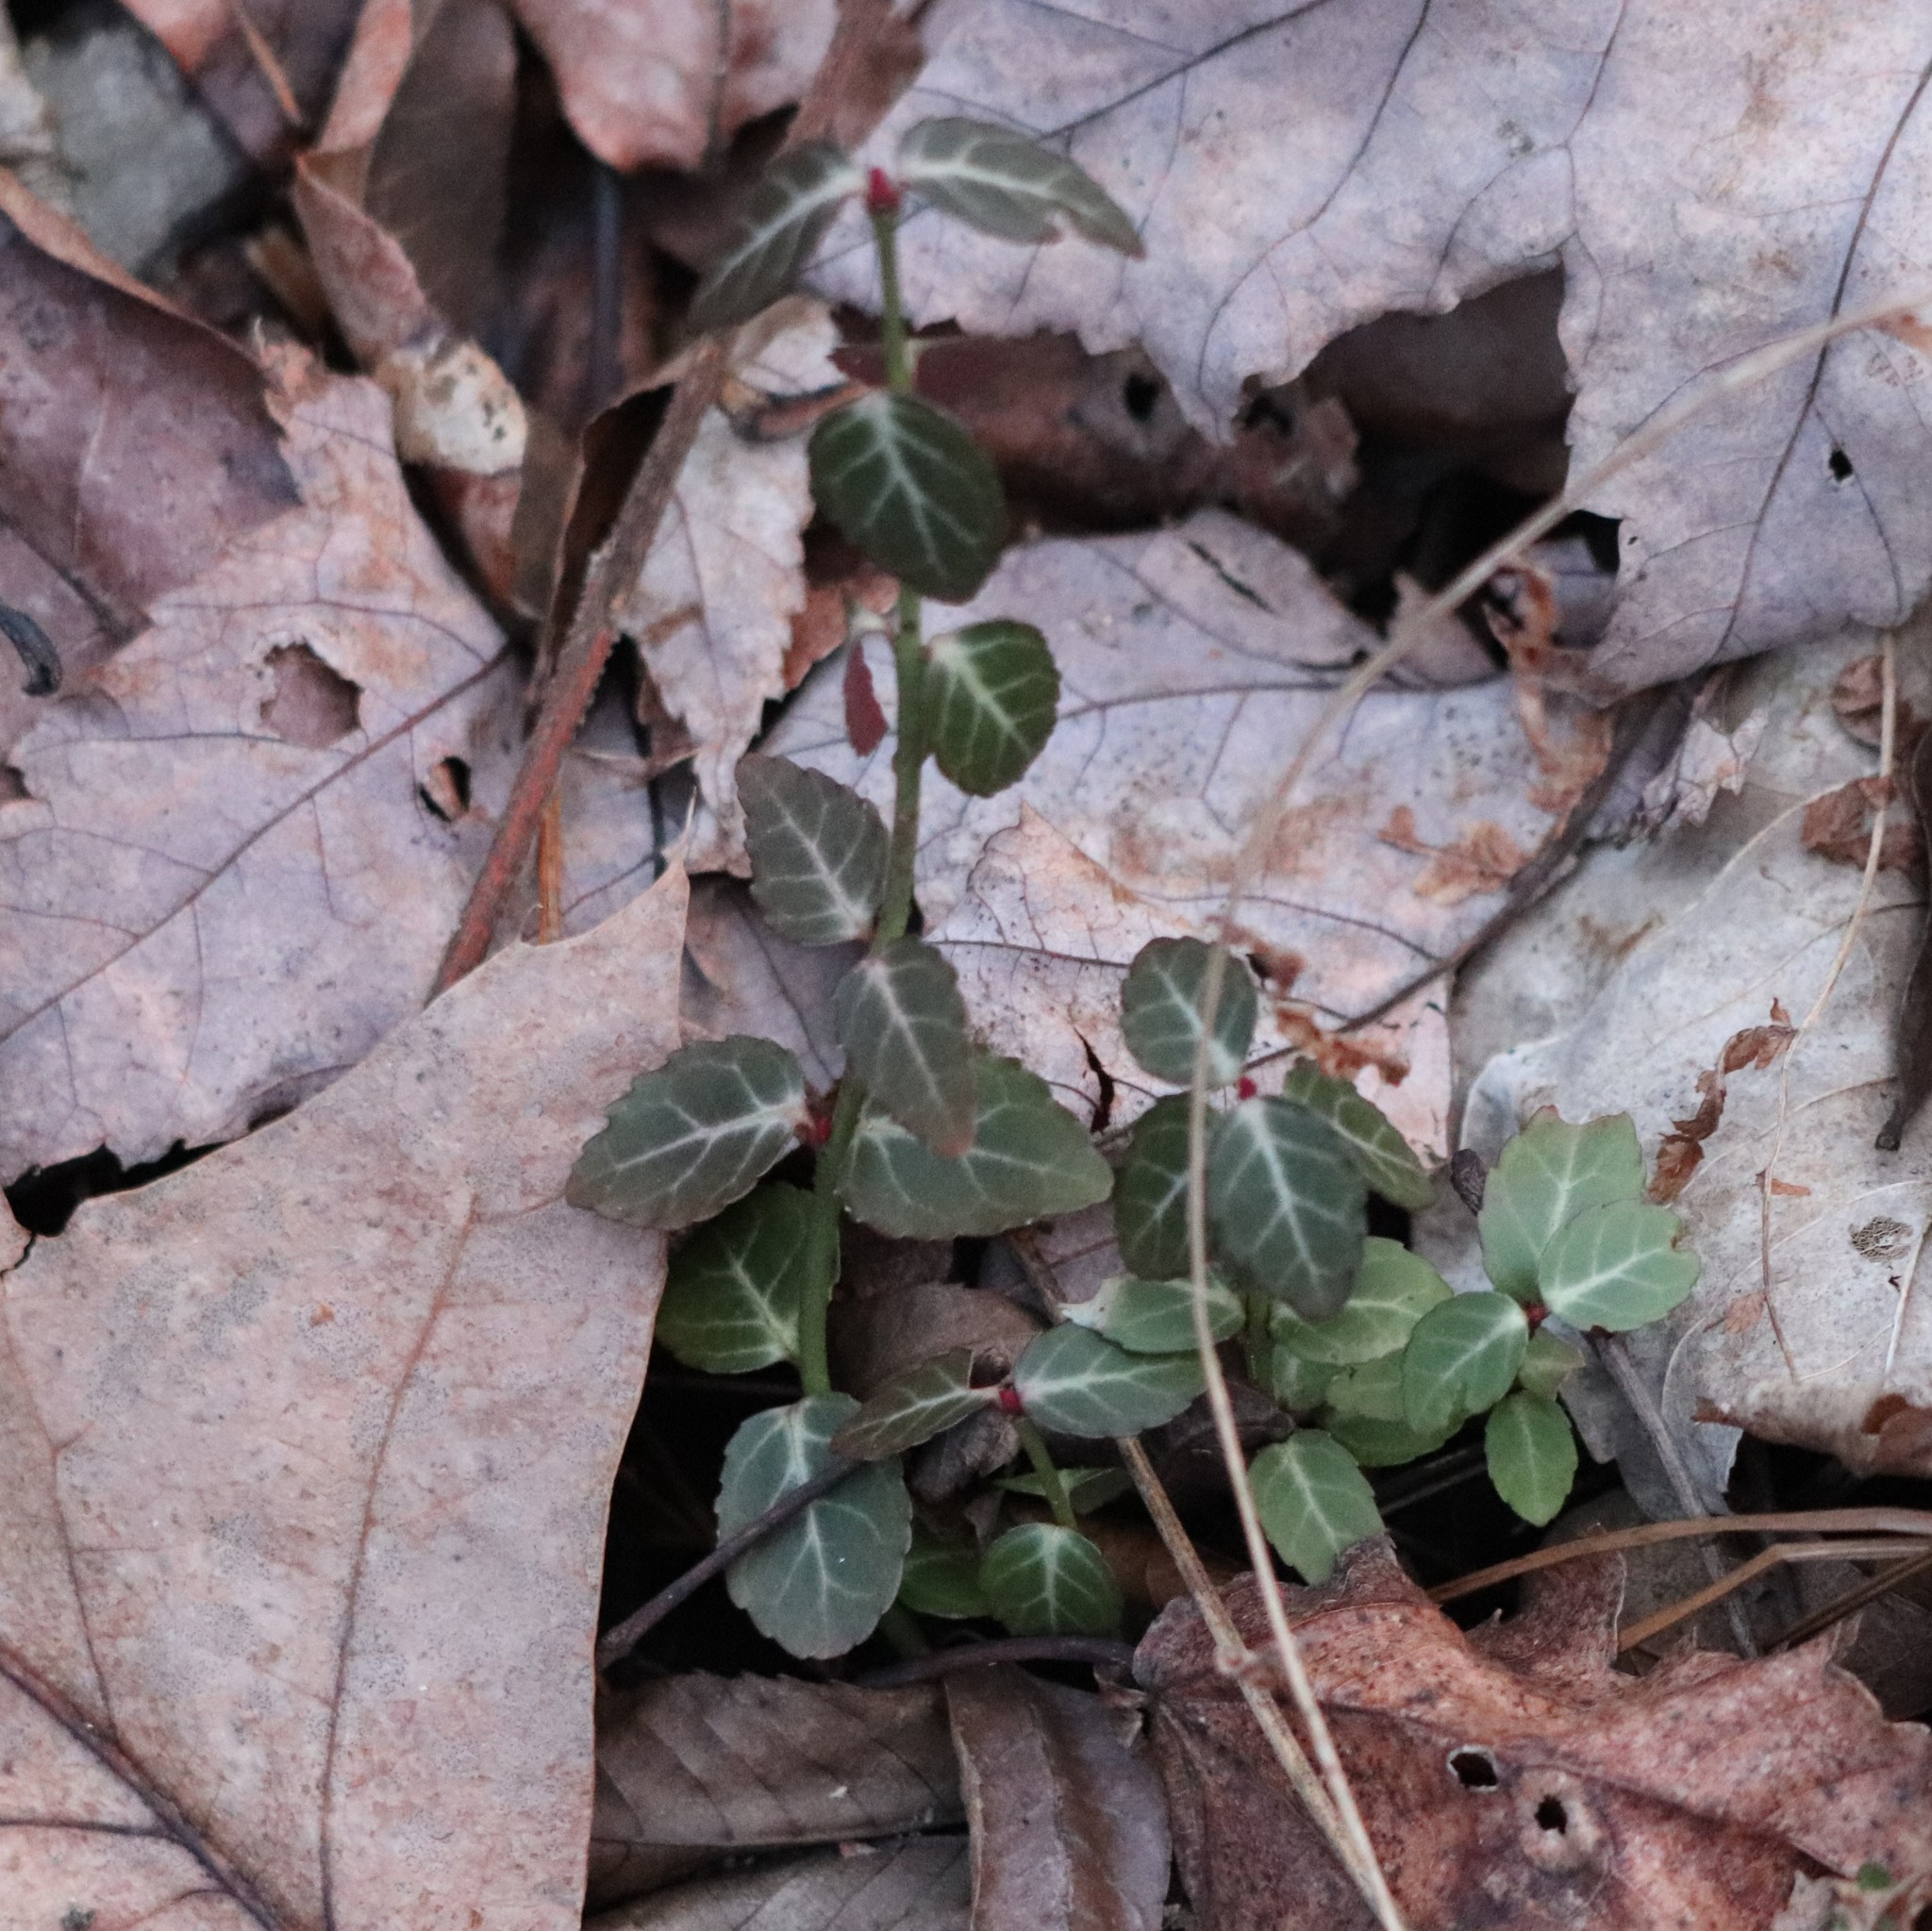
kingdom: Plantae
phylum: Tracheophyta
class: Magnoliopsida
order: Celastrales
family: Celastraceae
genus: Euonymus
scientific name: Euonymus fortunei
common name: Climbing euonymus
